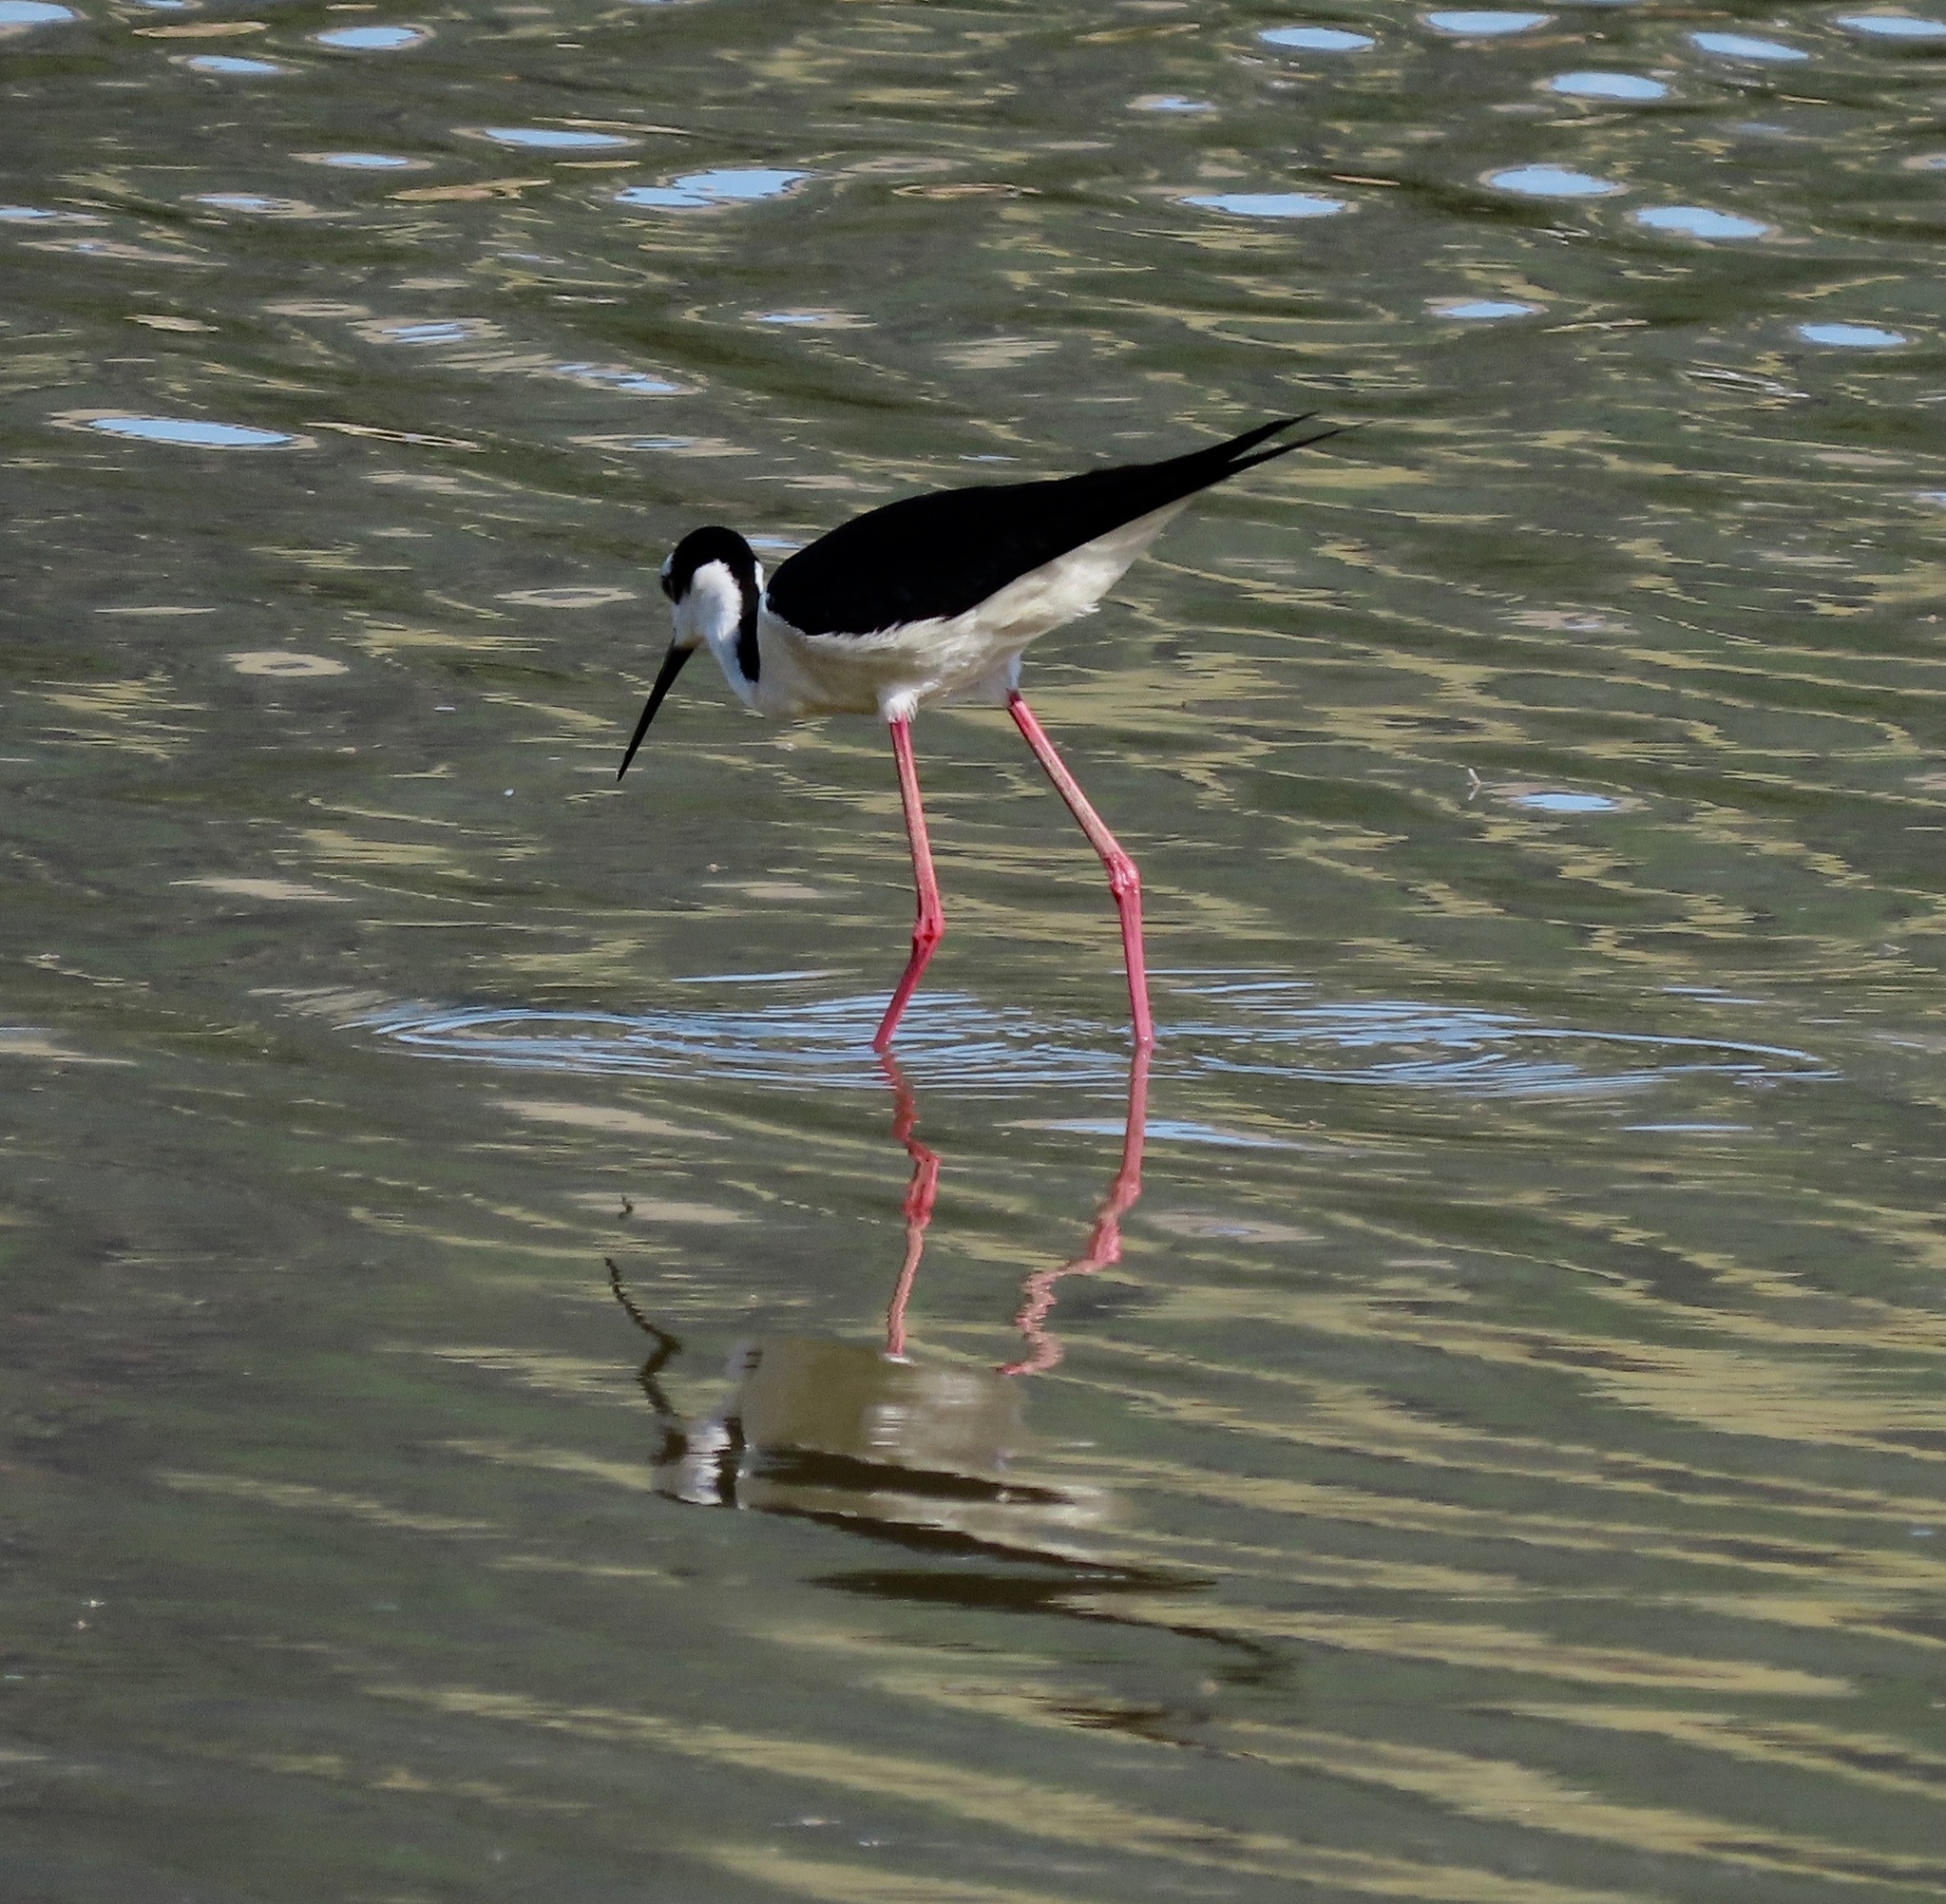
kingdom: Animalia
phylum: Chordata
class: Aves
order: Charadriiformes
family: Recurvirostridae
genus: Himantopus
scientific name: Himantopus mexicanus
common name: Black-necked stilt
